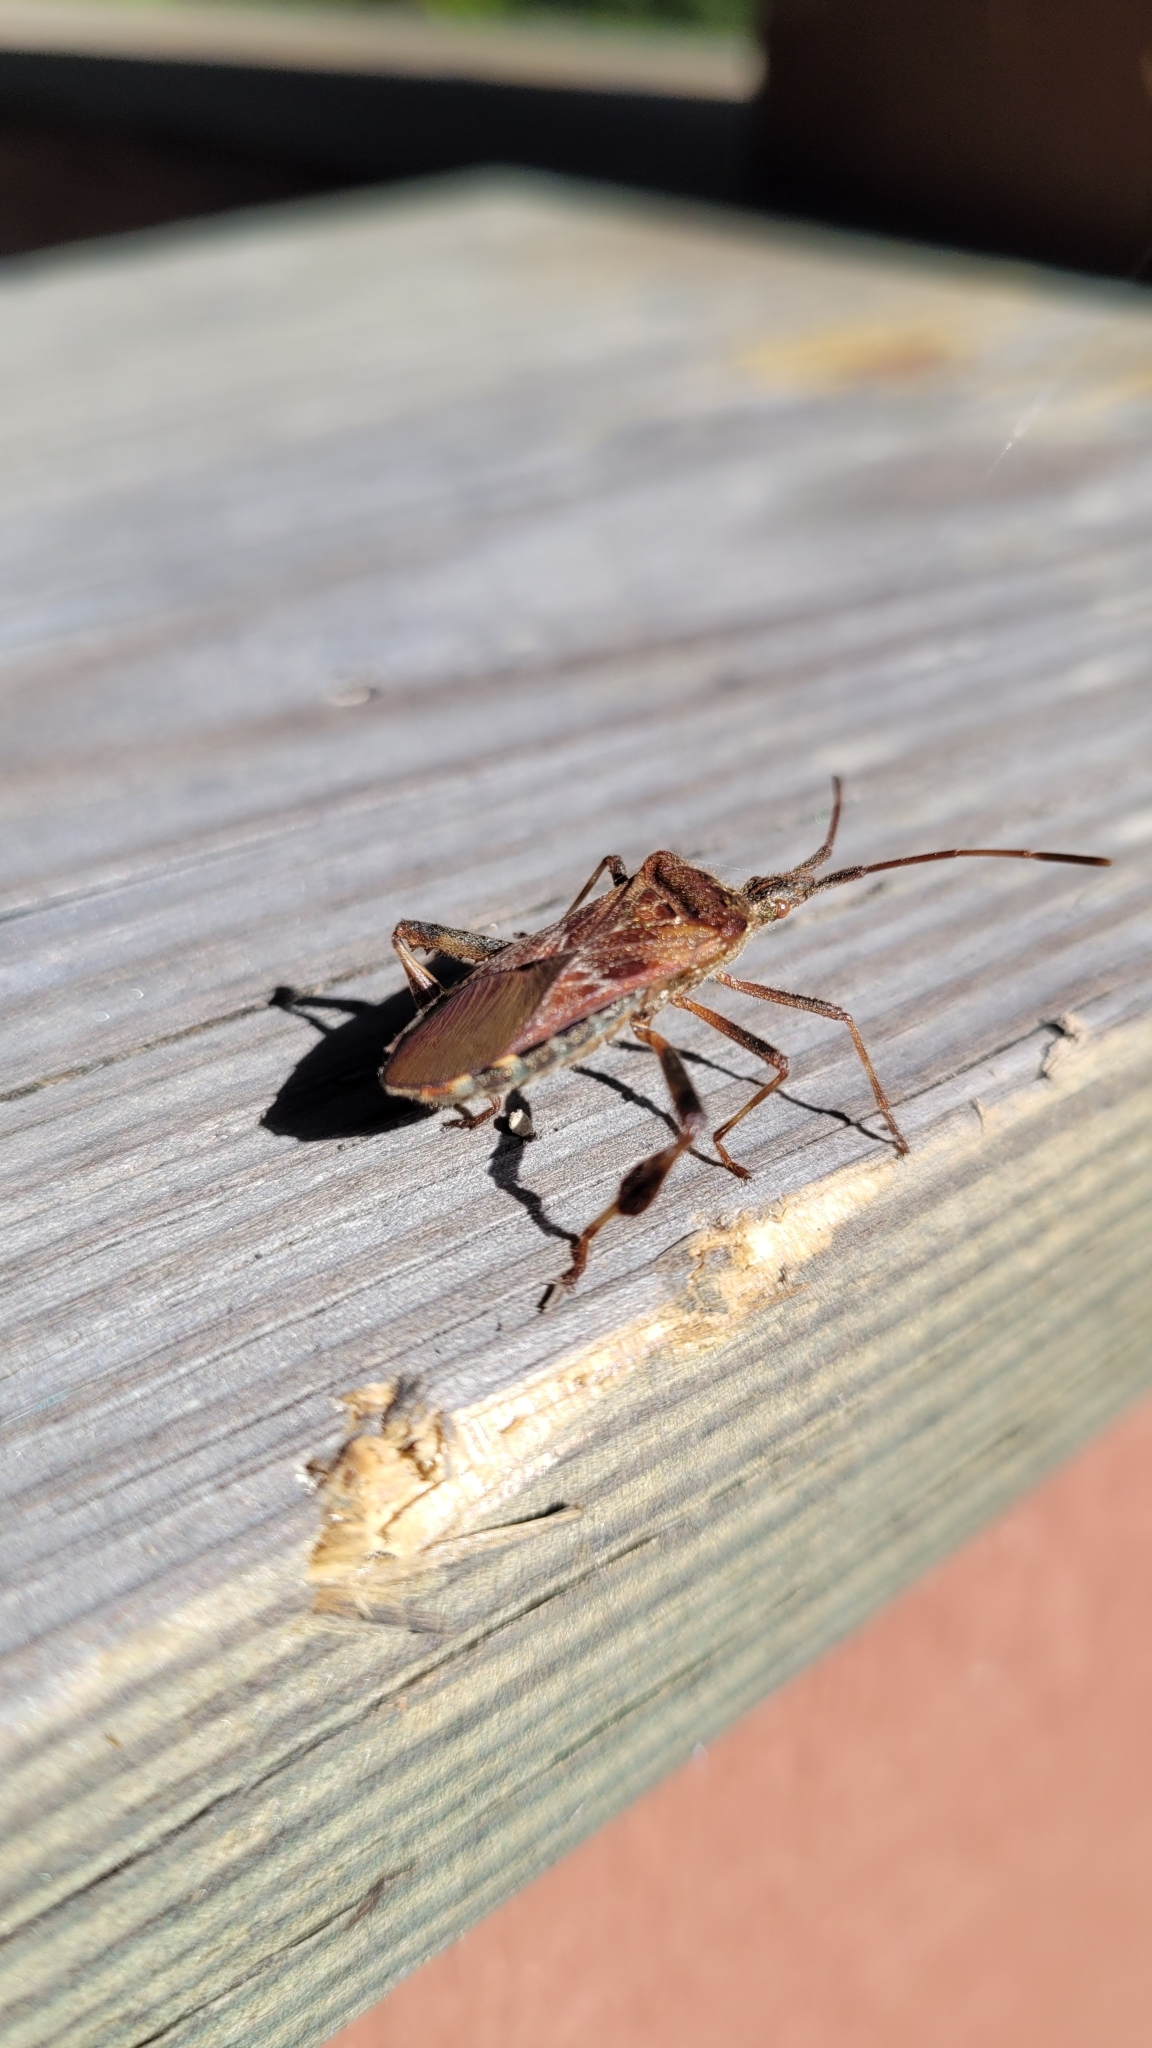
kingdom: Animalia
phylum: Arthropoda
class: Insecta
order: Hemiptera
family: Coreidae
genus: Leptoglossus
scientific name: Leptoglossus occidentalis
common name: Western conifer-seed bug
